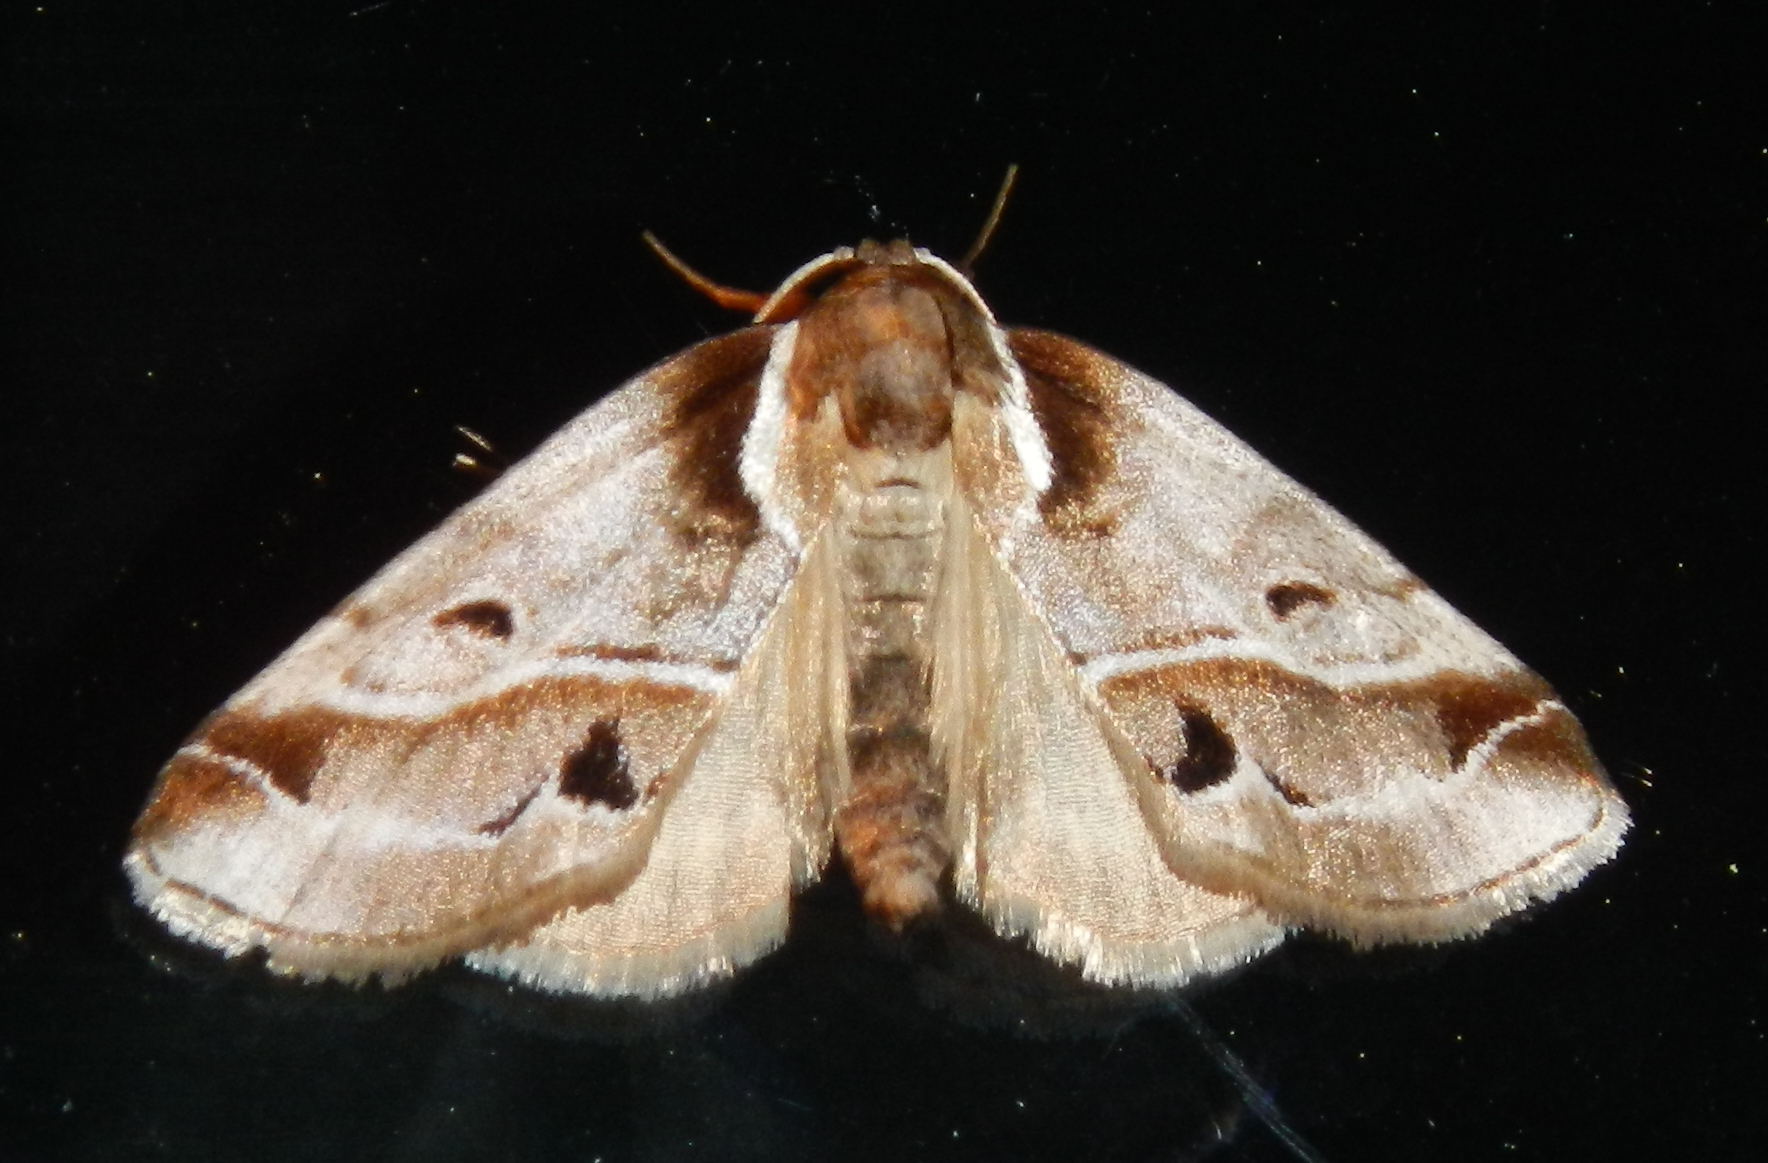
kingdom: Animalia
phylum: Arthropoda
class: Insecta
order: Lepidoptera
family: Nolidae
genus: Baileya
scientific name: Baileya doubledayi
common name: Doubleday's baileya moth
